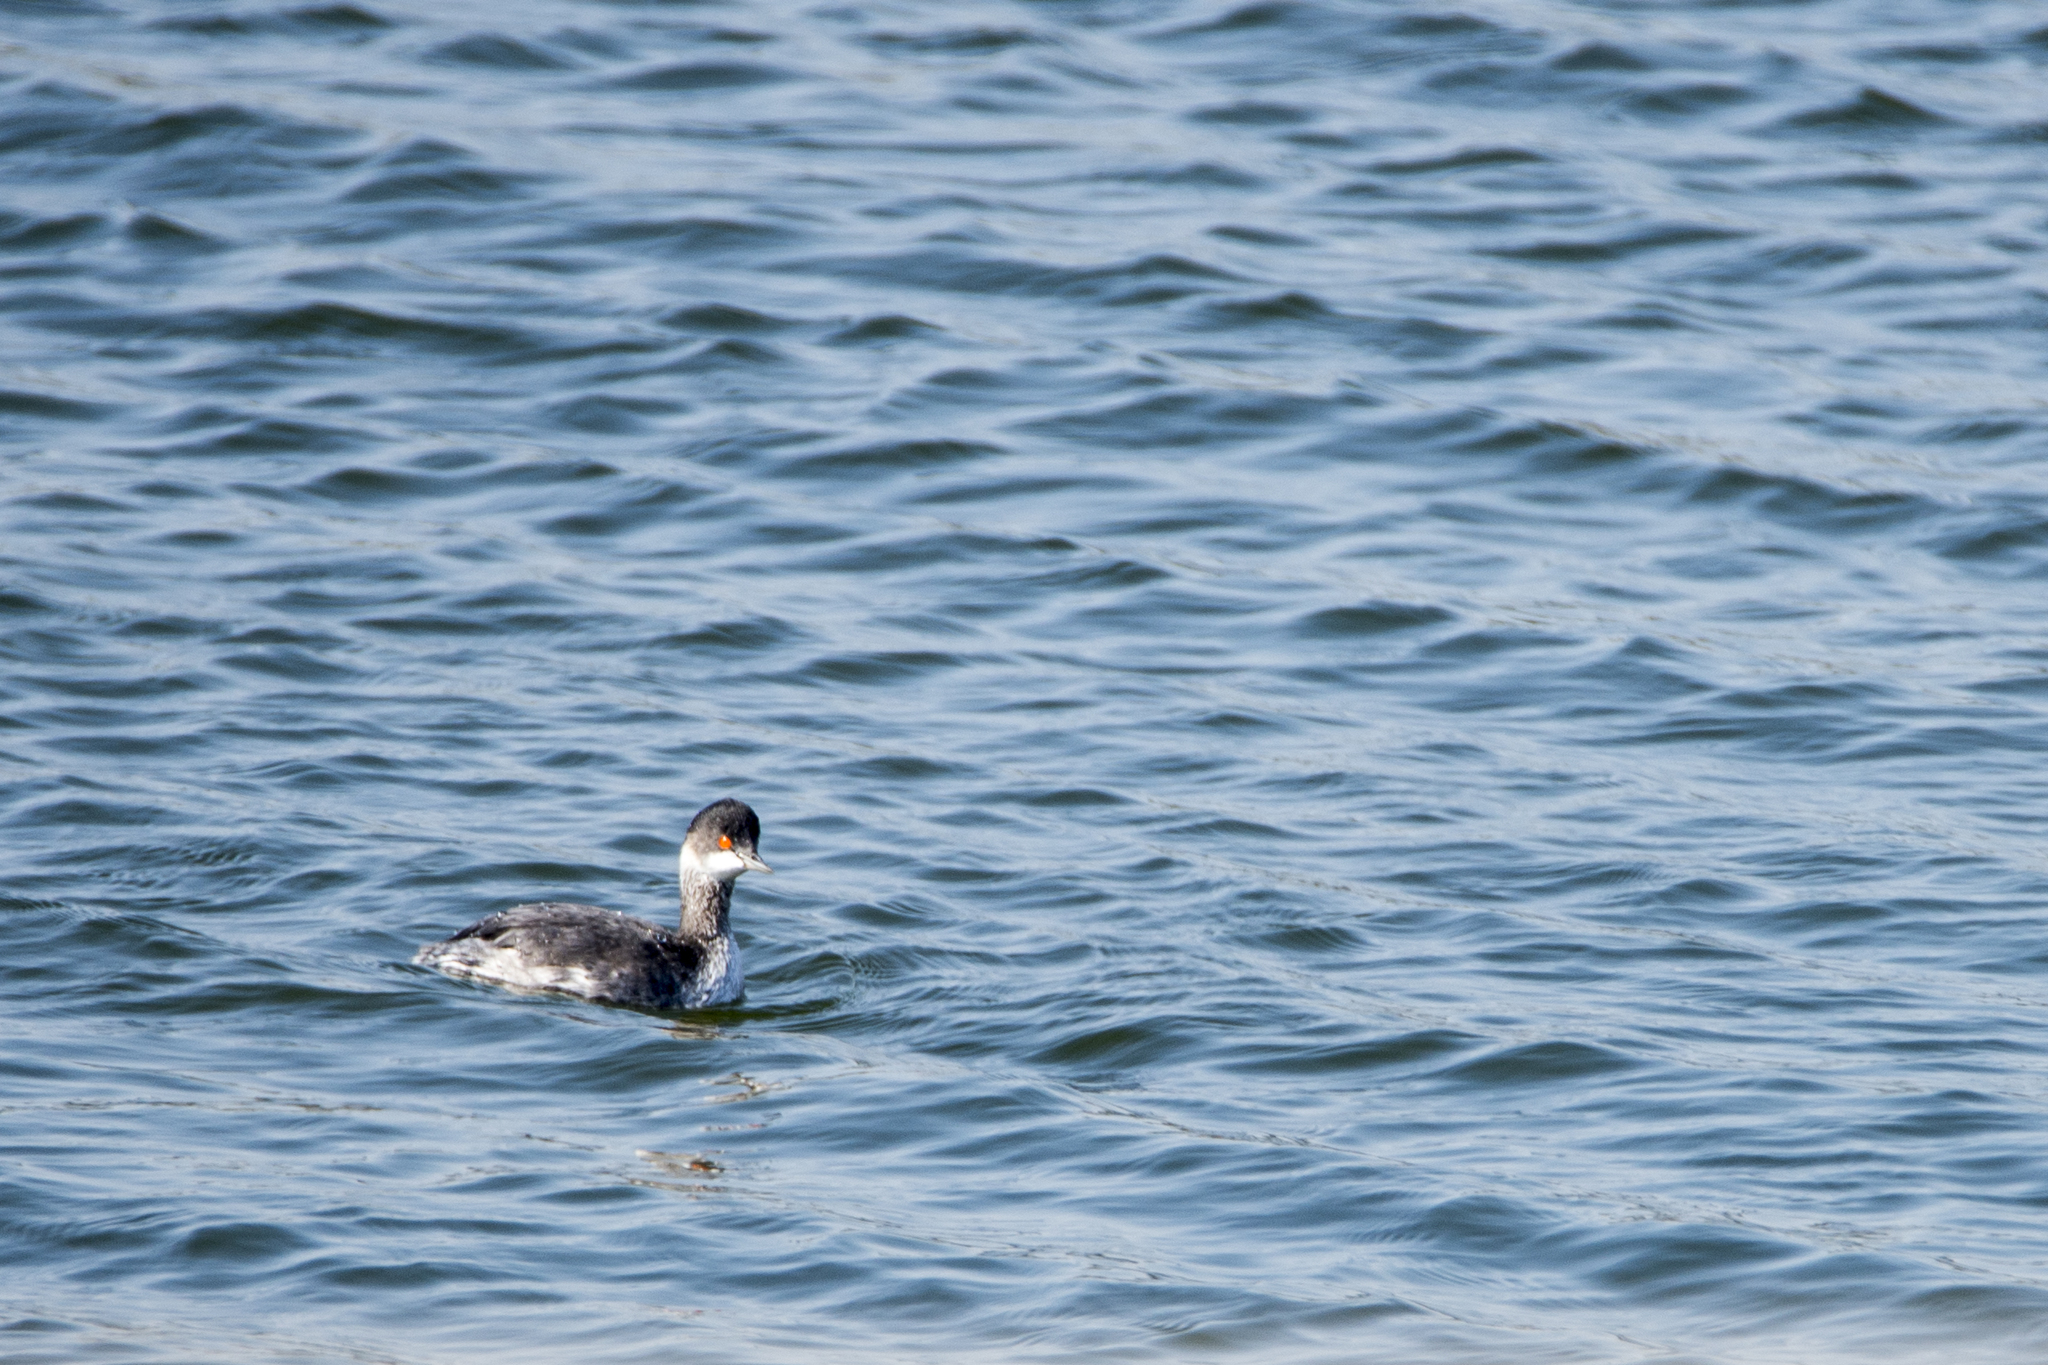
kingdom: Animalia
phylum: Chordata
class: Aves
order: Podicipediformes
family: Podicipedidae
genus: Podiceps
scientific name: Podiceps nigricollis
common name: Black-necked grebe
